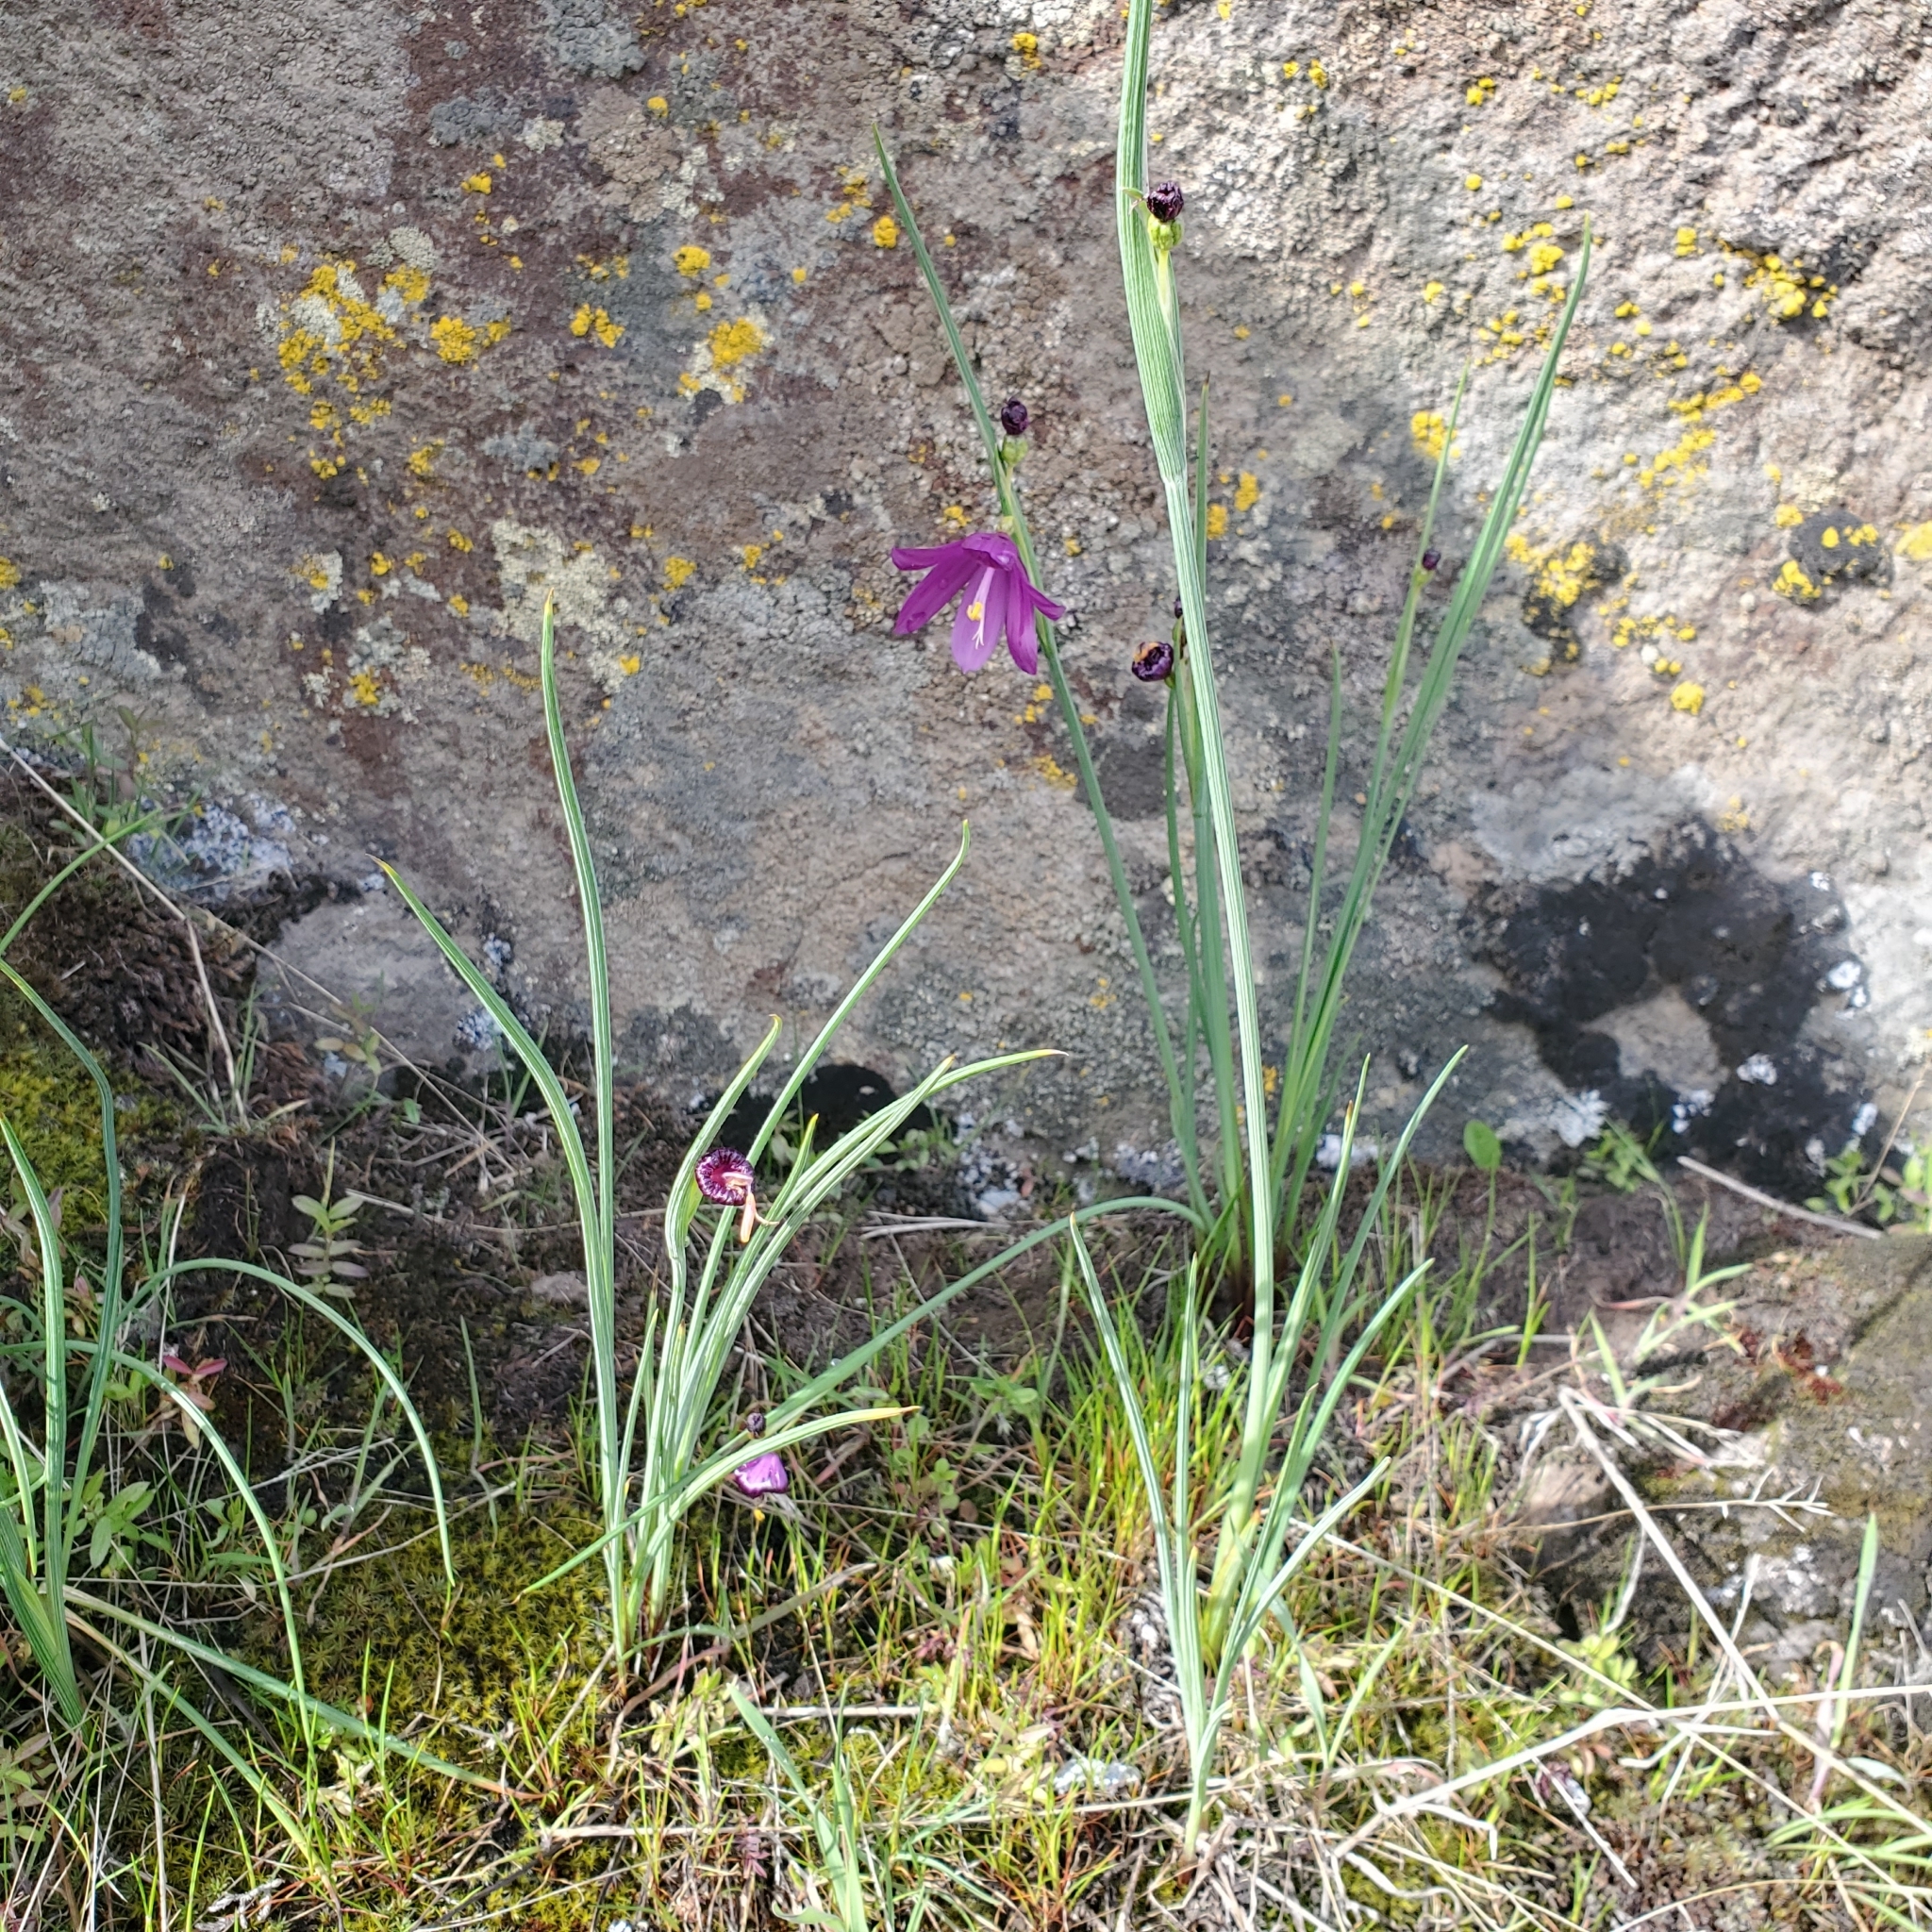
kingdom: Plantae
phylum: Tracheophyta
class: Liliopsida
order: Asparagales
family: Iridaceae
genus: Olsynium
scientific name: Olsynium douglasii
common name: Douglas' grasswidow
